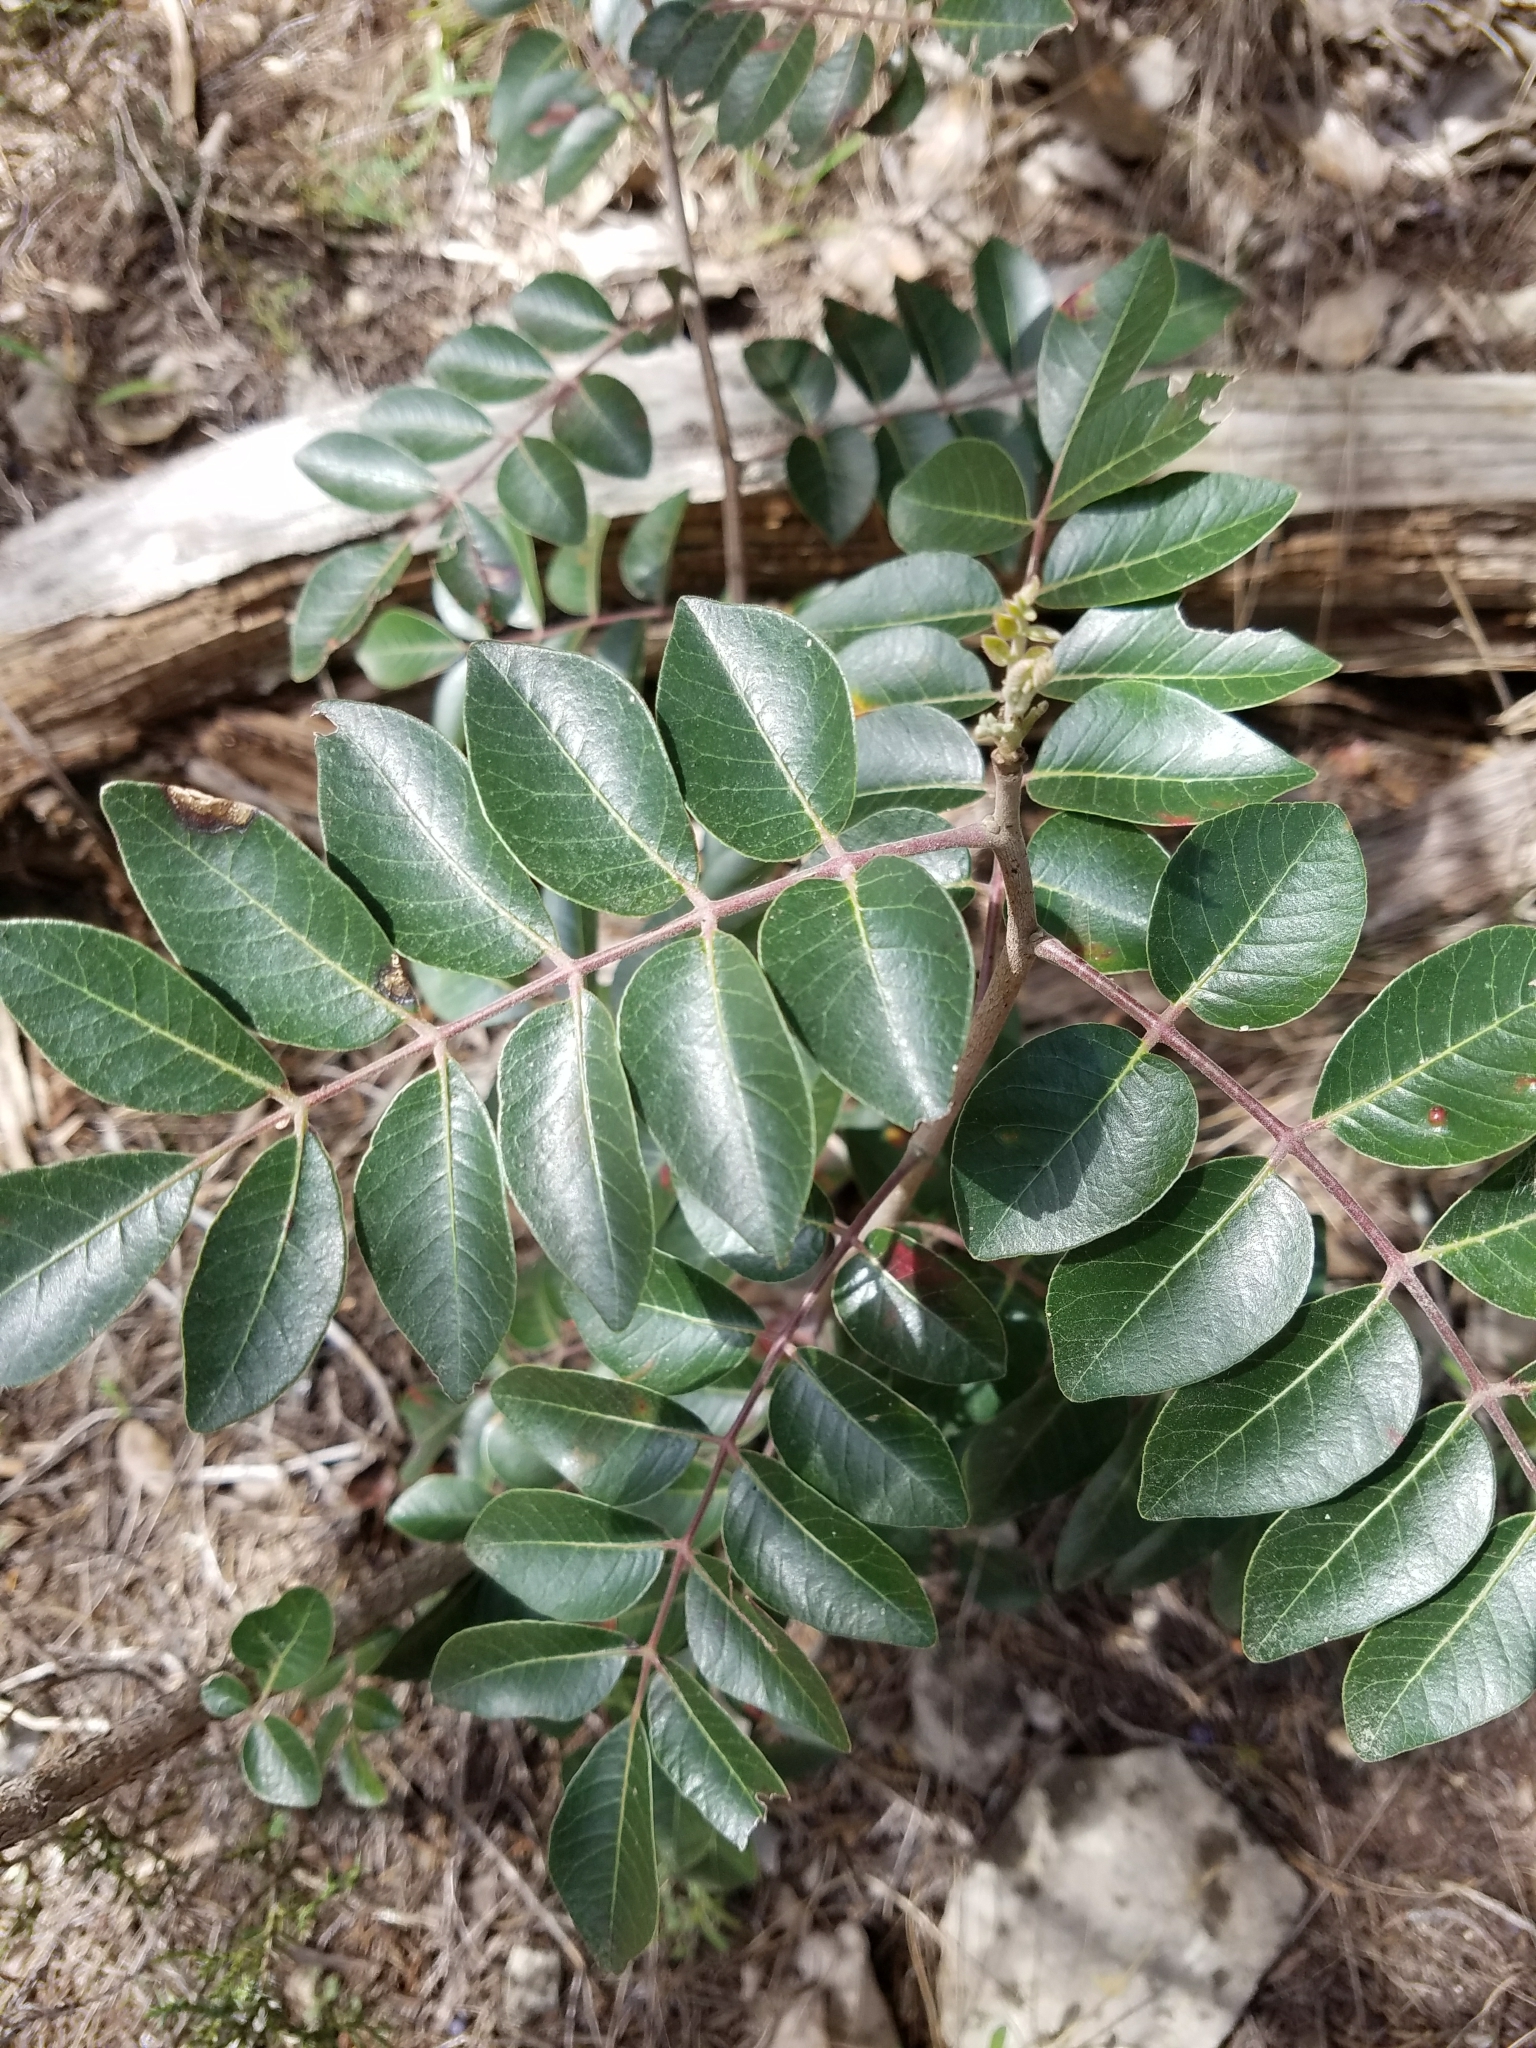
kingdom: Plantae
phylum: Tracheophyta
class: Magnoliopsida
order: Sapindales
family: Anacardiaceae
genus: Rhus
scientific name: Rhus virens
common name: Evergreen sumac
